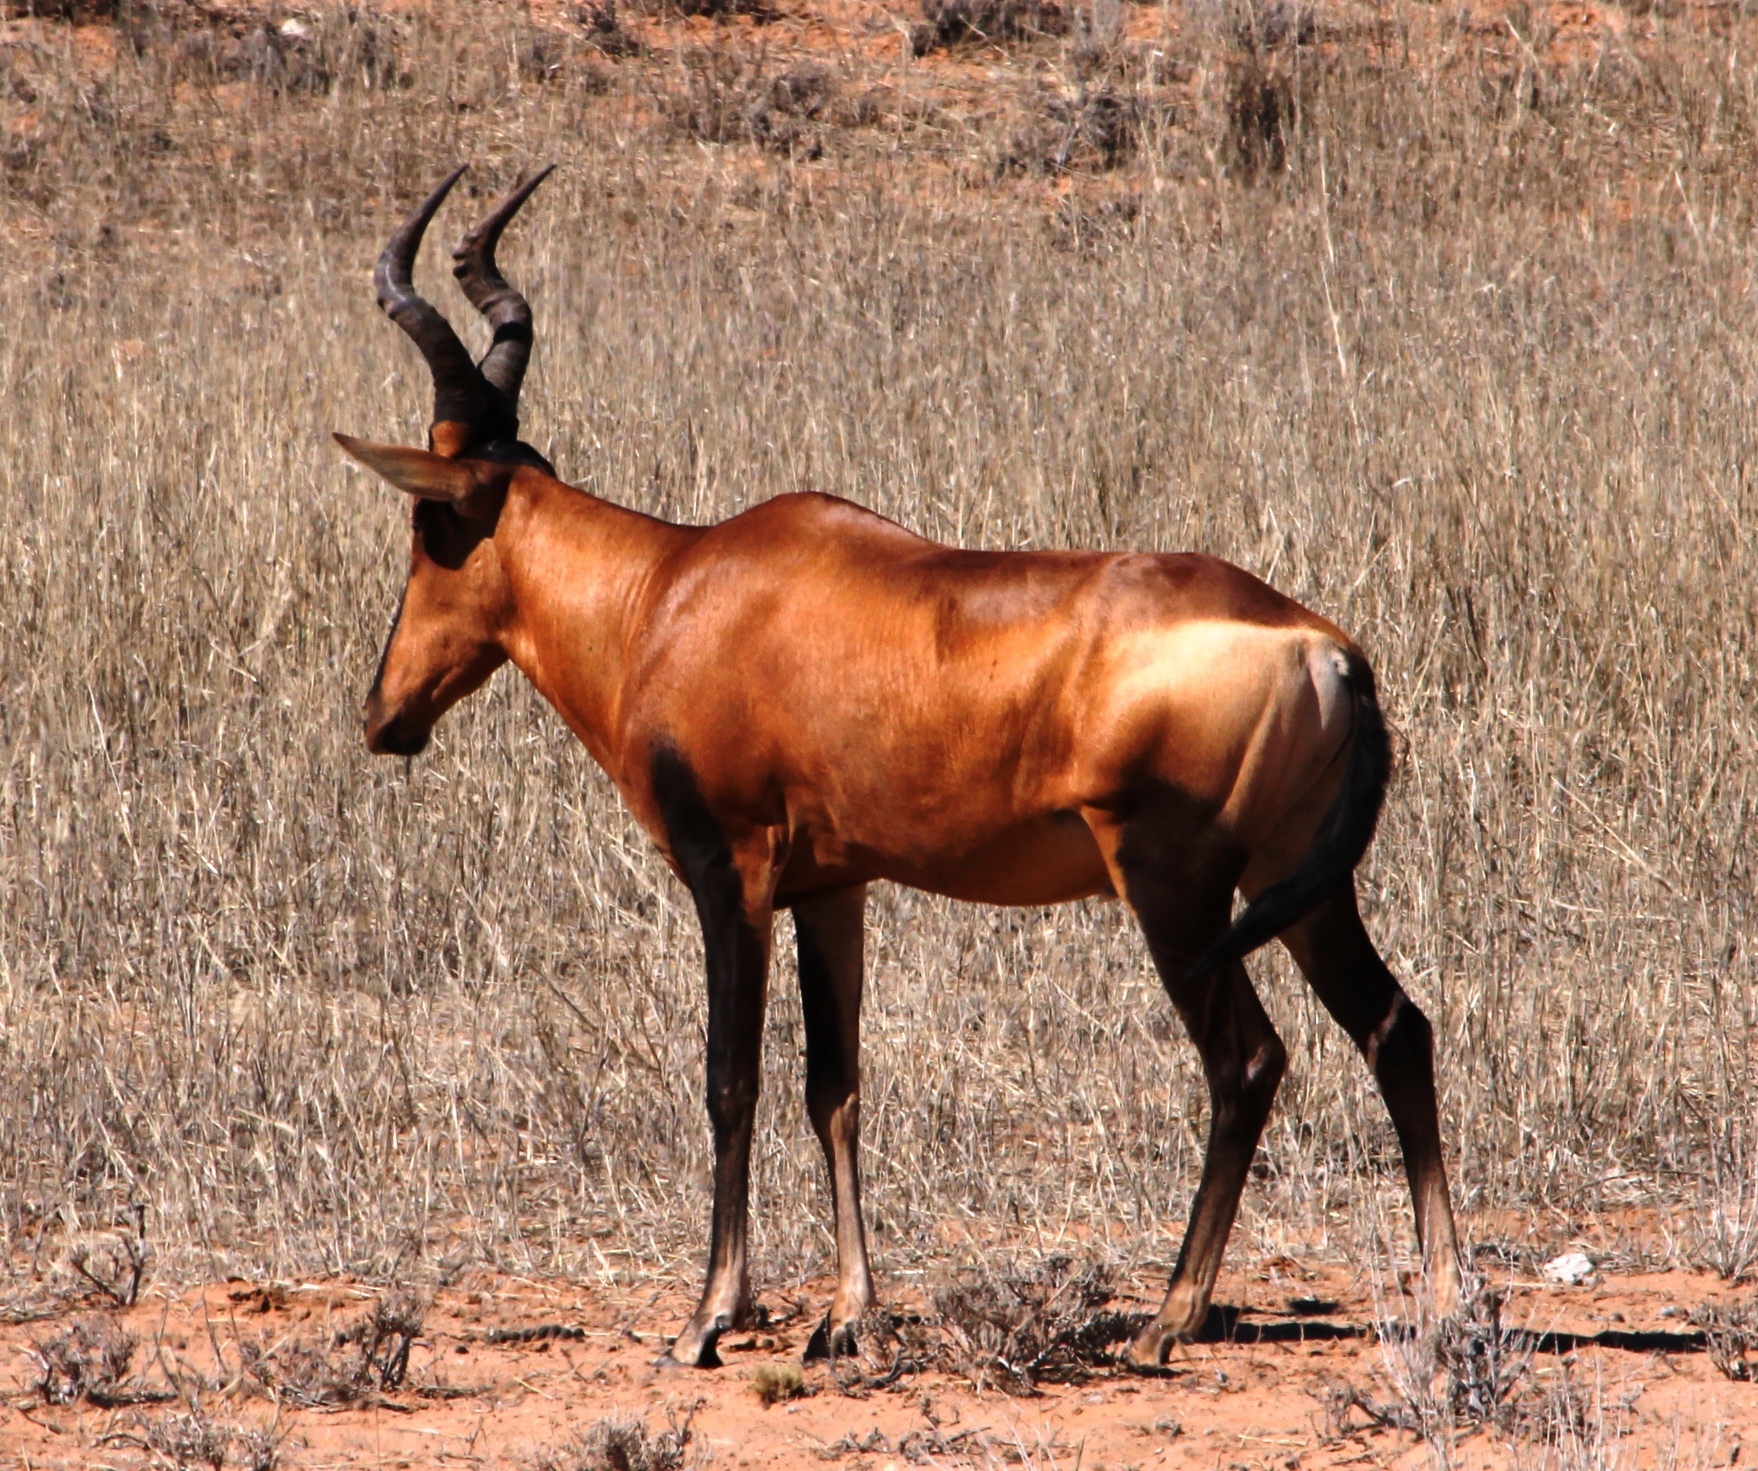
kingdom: Animalia
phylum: Chordata
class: Mammalia
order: Artiodactyla
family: Bovidae
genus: Alcelaphus
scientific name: Alcelaphus caama
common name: Red hartebeest
